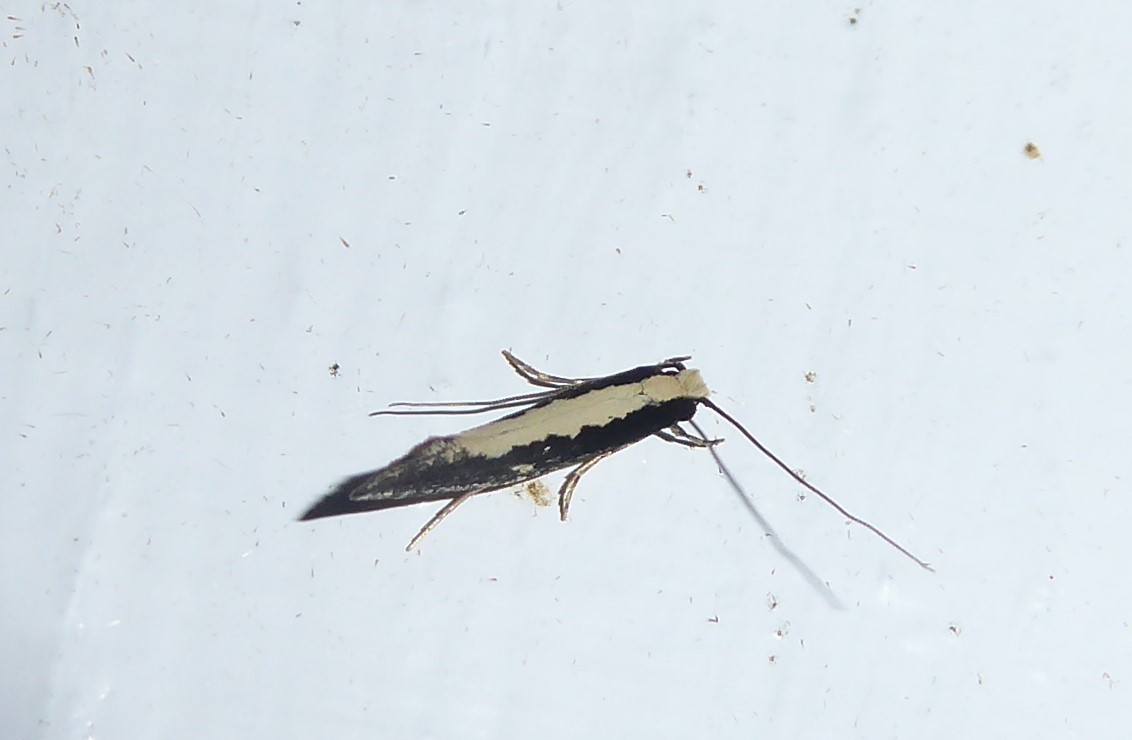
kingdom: Animalia
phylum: Arthropoda
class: Insecta
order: Lepidoptera
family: Tineidae
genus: Monopis
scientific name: Monopis ethelella
